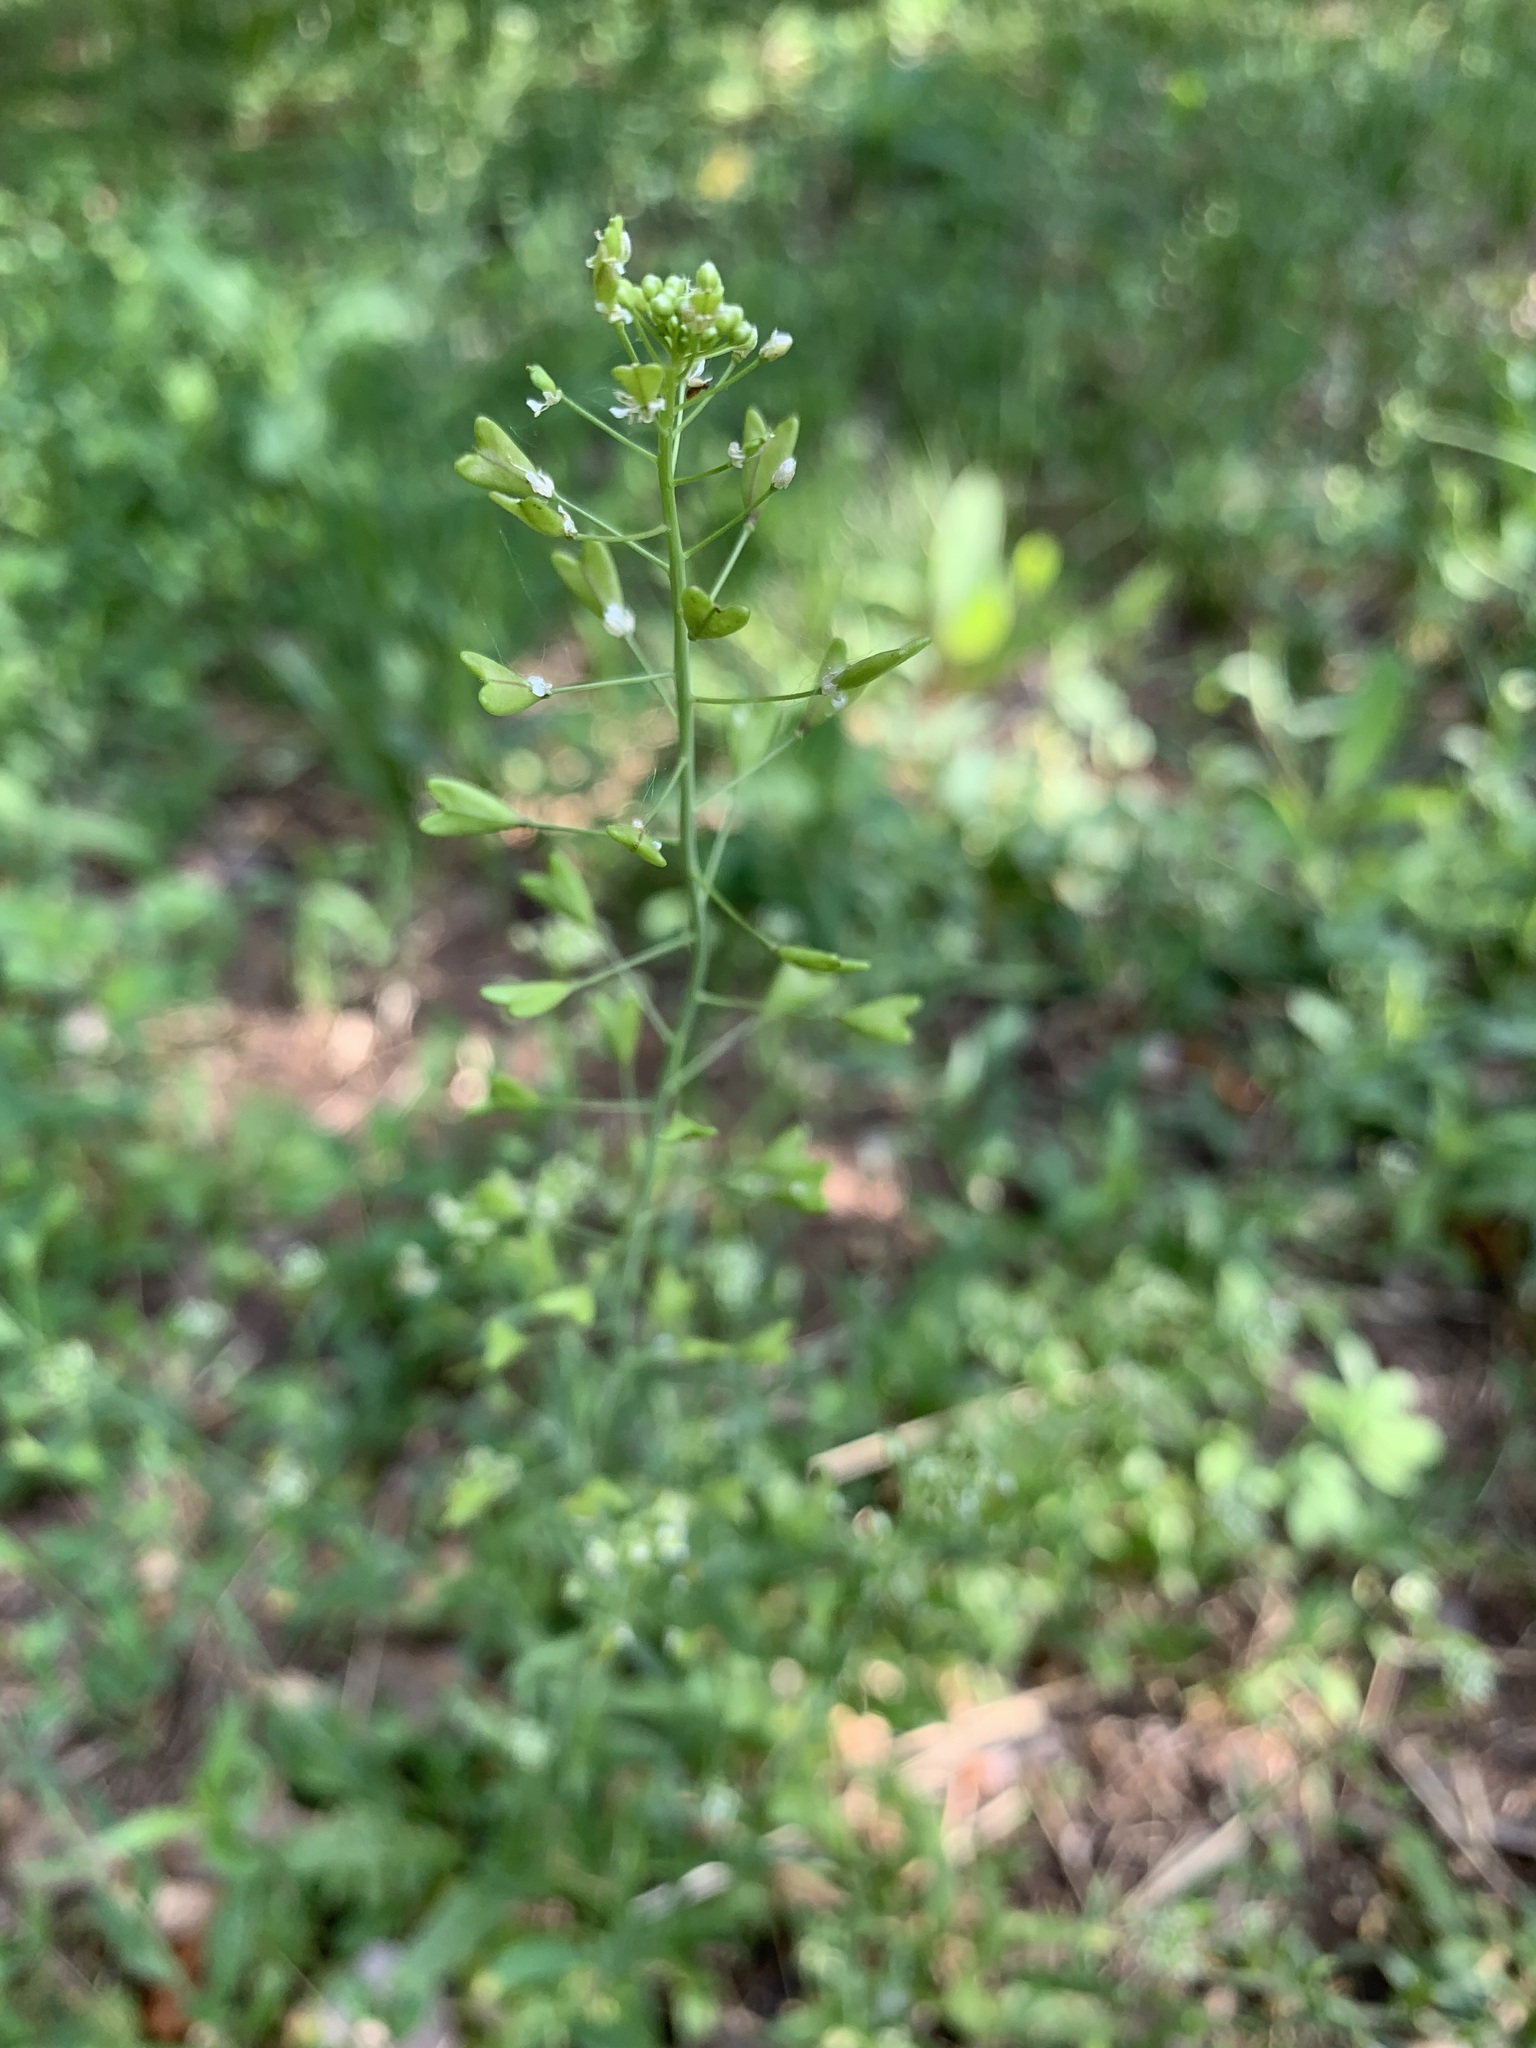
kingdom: Plantae
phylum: Tracheophyta
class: Magnoliopsida
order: Brassicales
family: Brassicaceae
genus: Capsella
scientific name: Capsella orientalis
